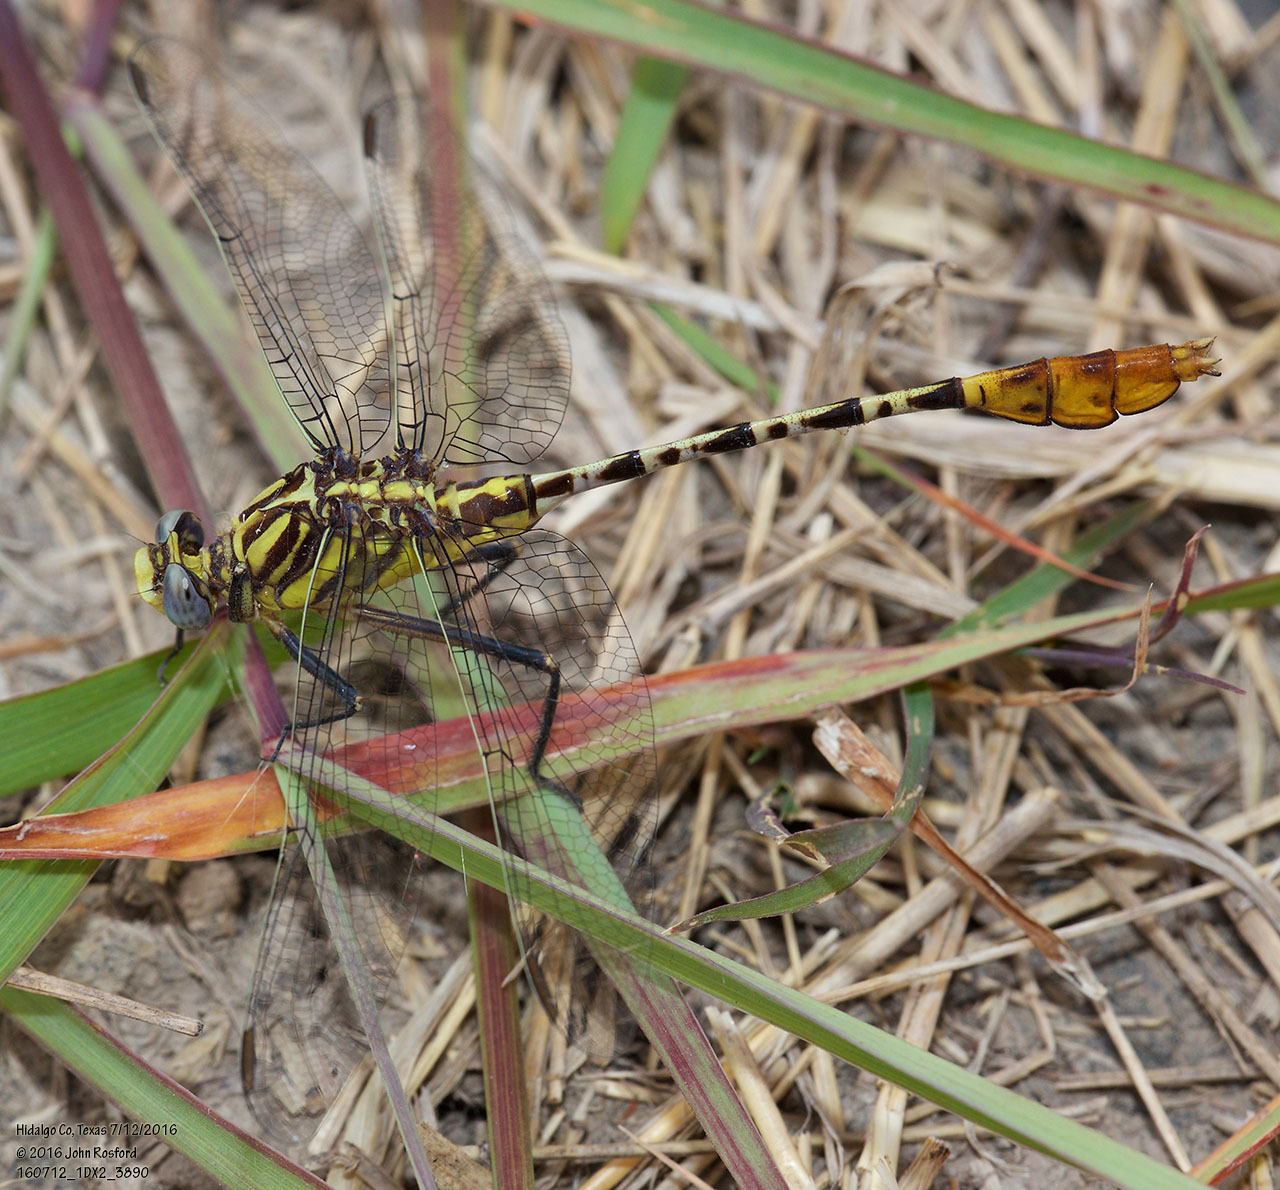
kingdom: Animalia
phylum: Arthropoda
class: Insecta
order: Odonata
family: Gomphidae
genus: Dromogomphus
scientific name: Dromogomphus spoliatus
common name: Flag-tailed spinyleg
